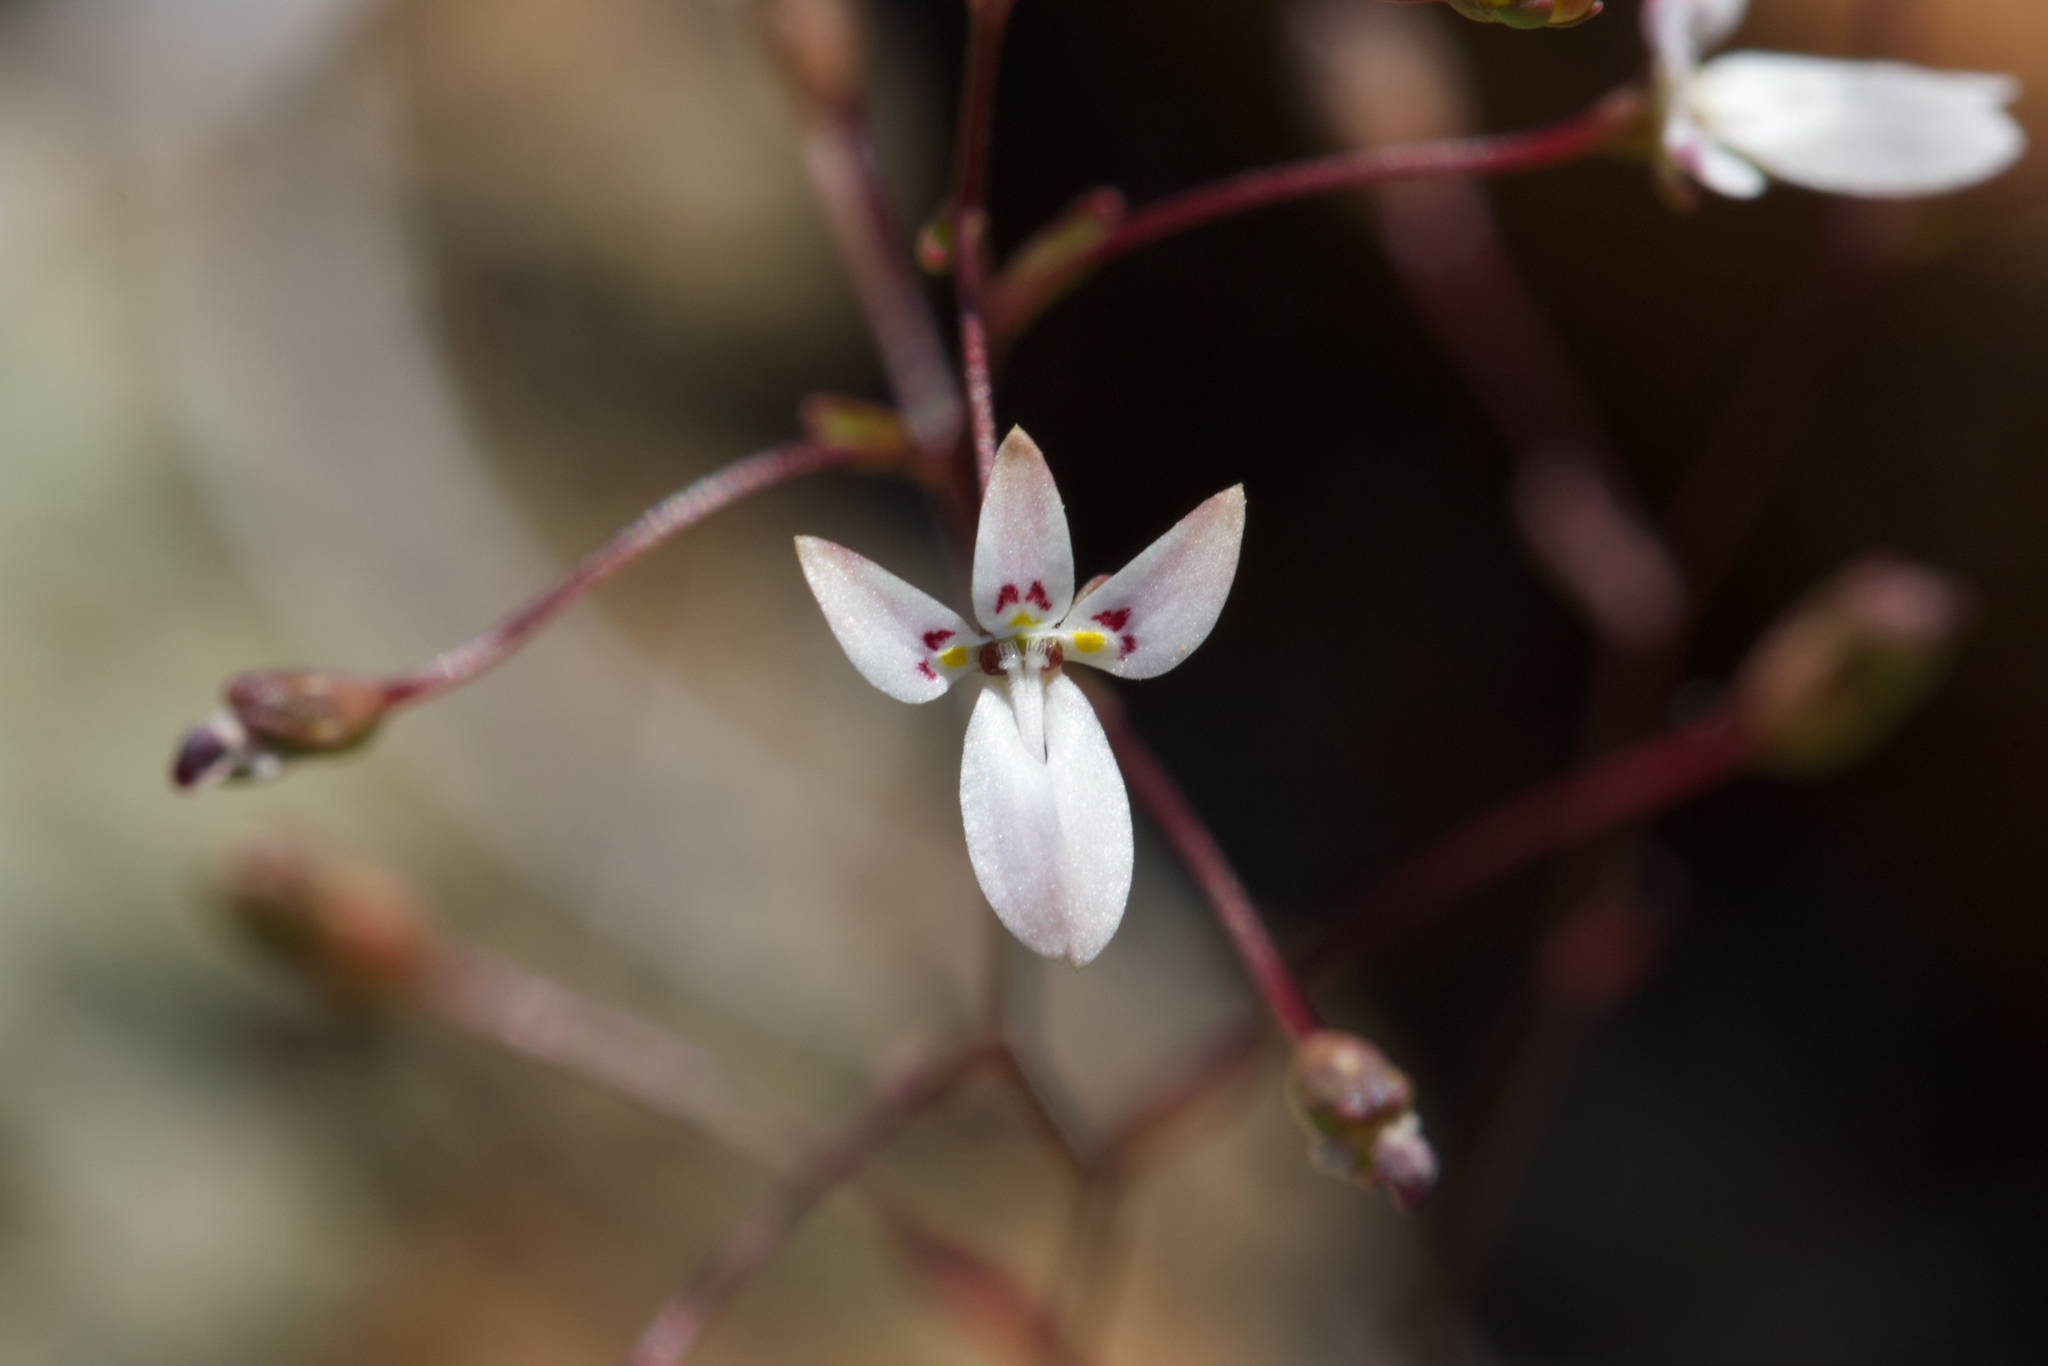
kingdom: Plantae
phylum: Tracheophyta
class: Magnoliopsida
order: Asterales
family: Campanulaceae
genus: Nemacladus
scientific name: Nemacladus montanus
